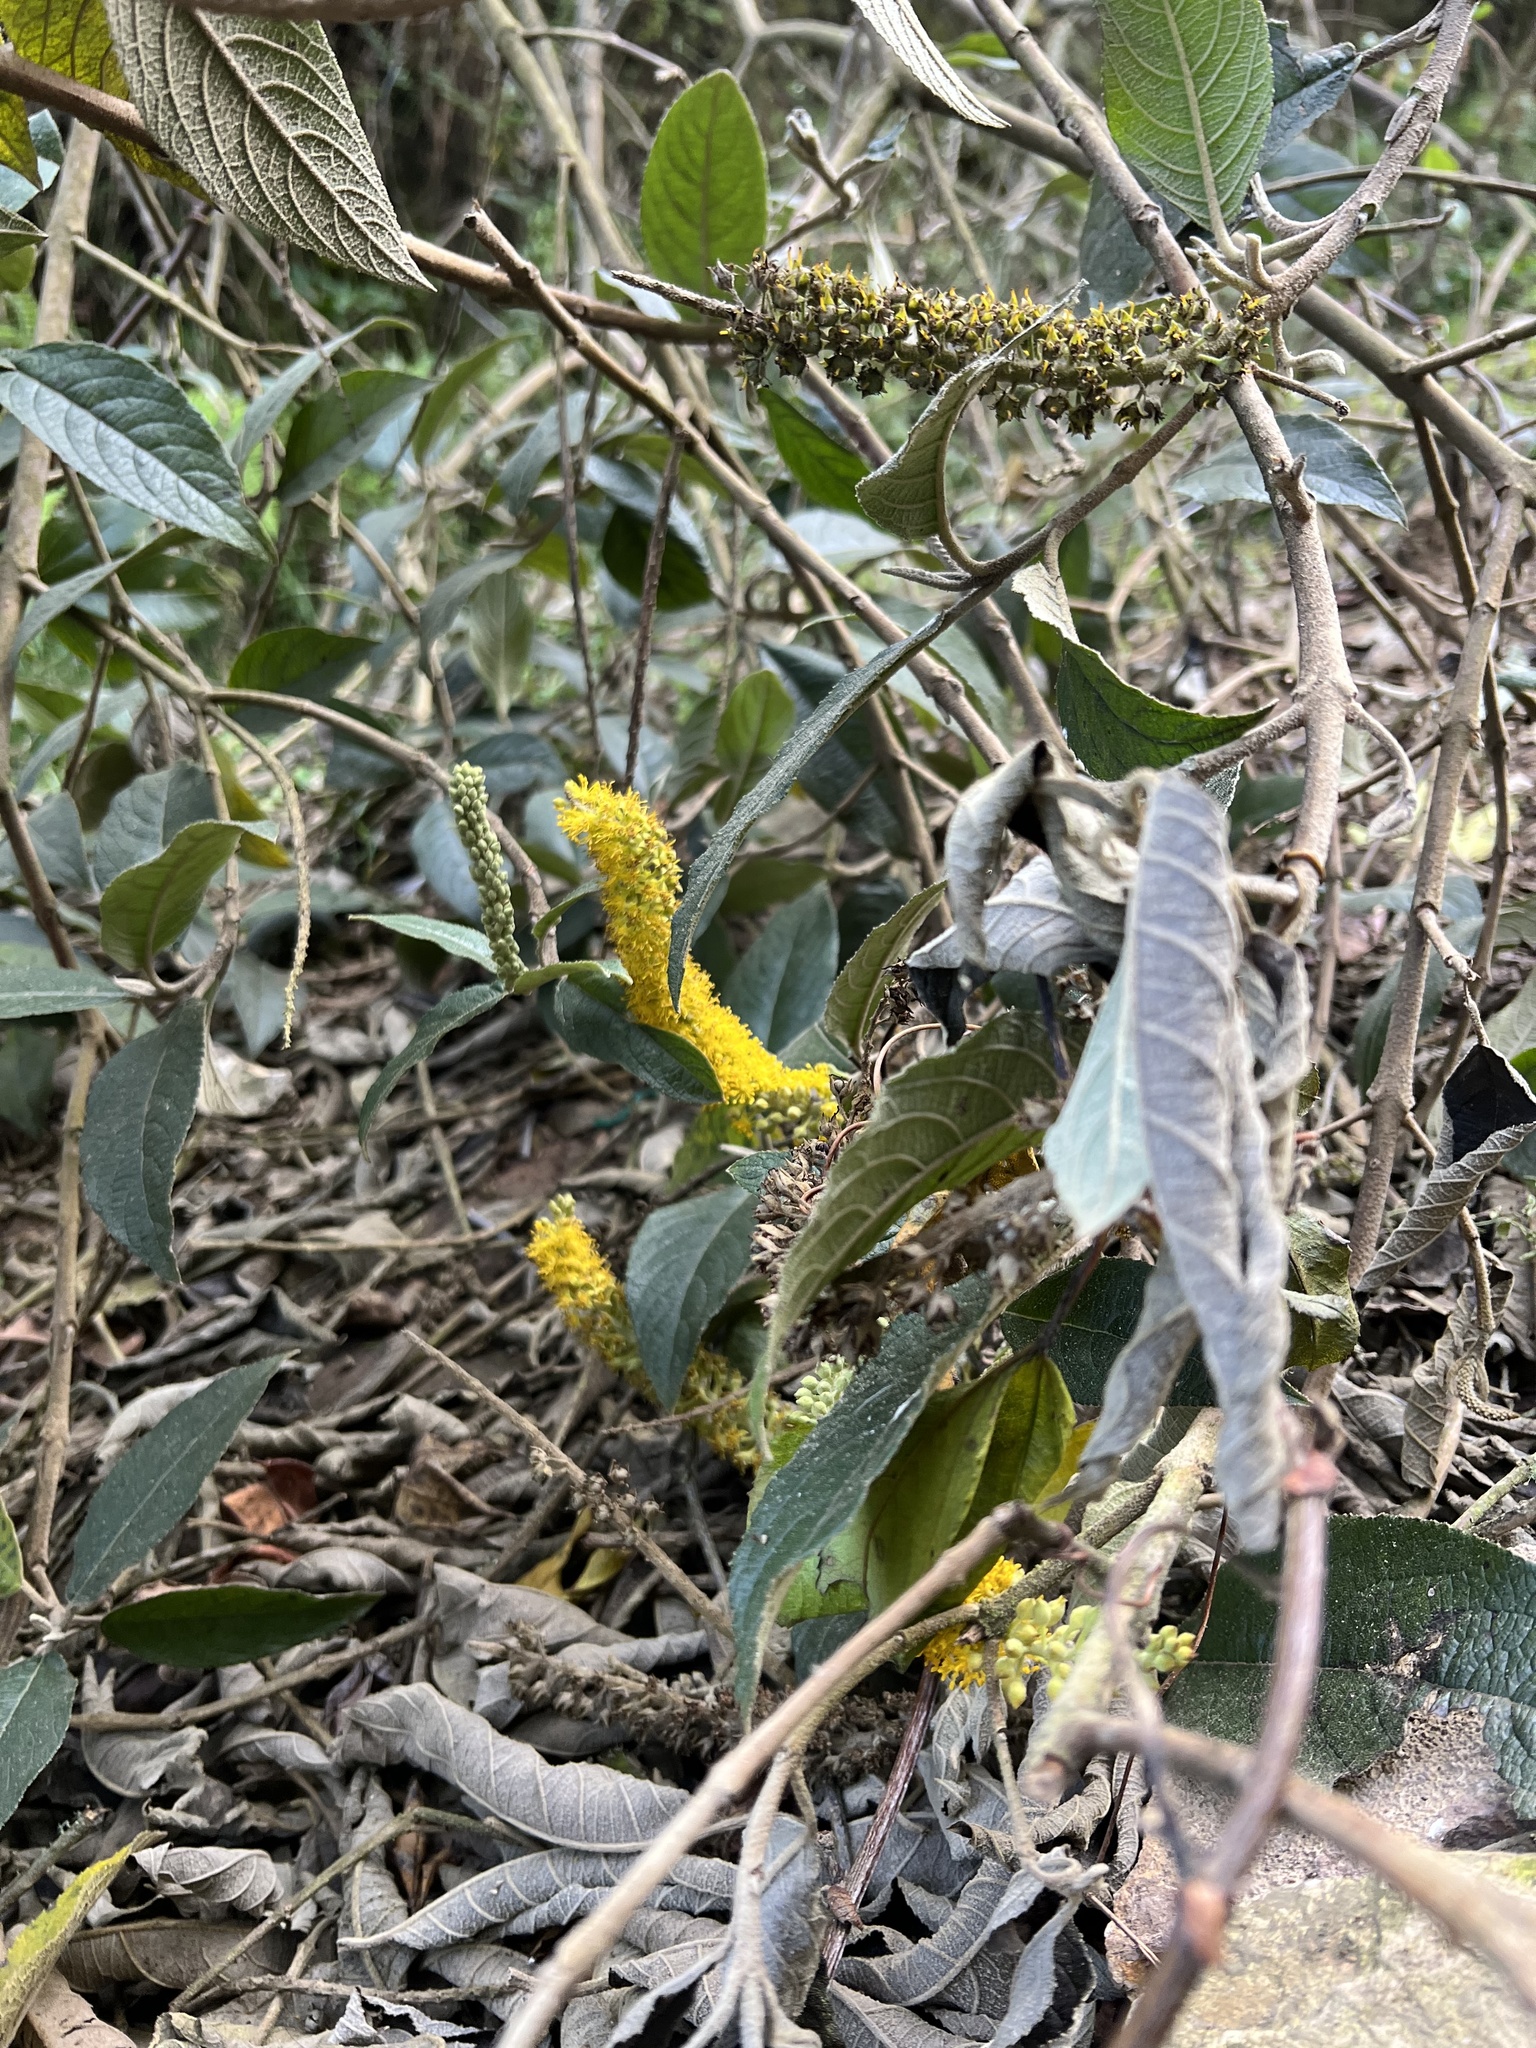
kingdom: Plantae
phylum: Tracheophyta
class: Magnoliopsida
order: Malpighiales
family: Salicaceae
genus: Abatia
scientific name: Abatia parviflora
